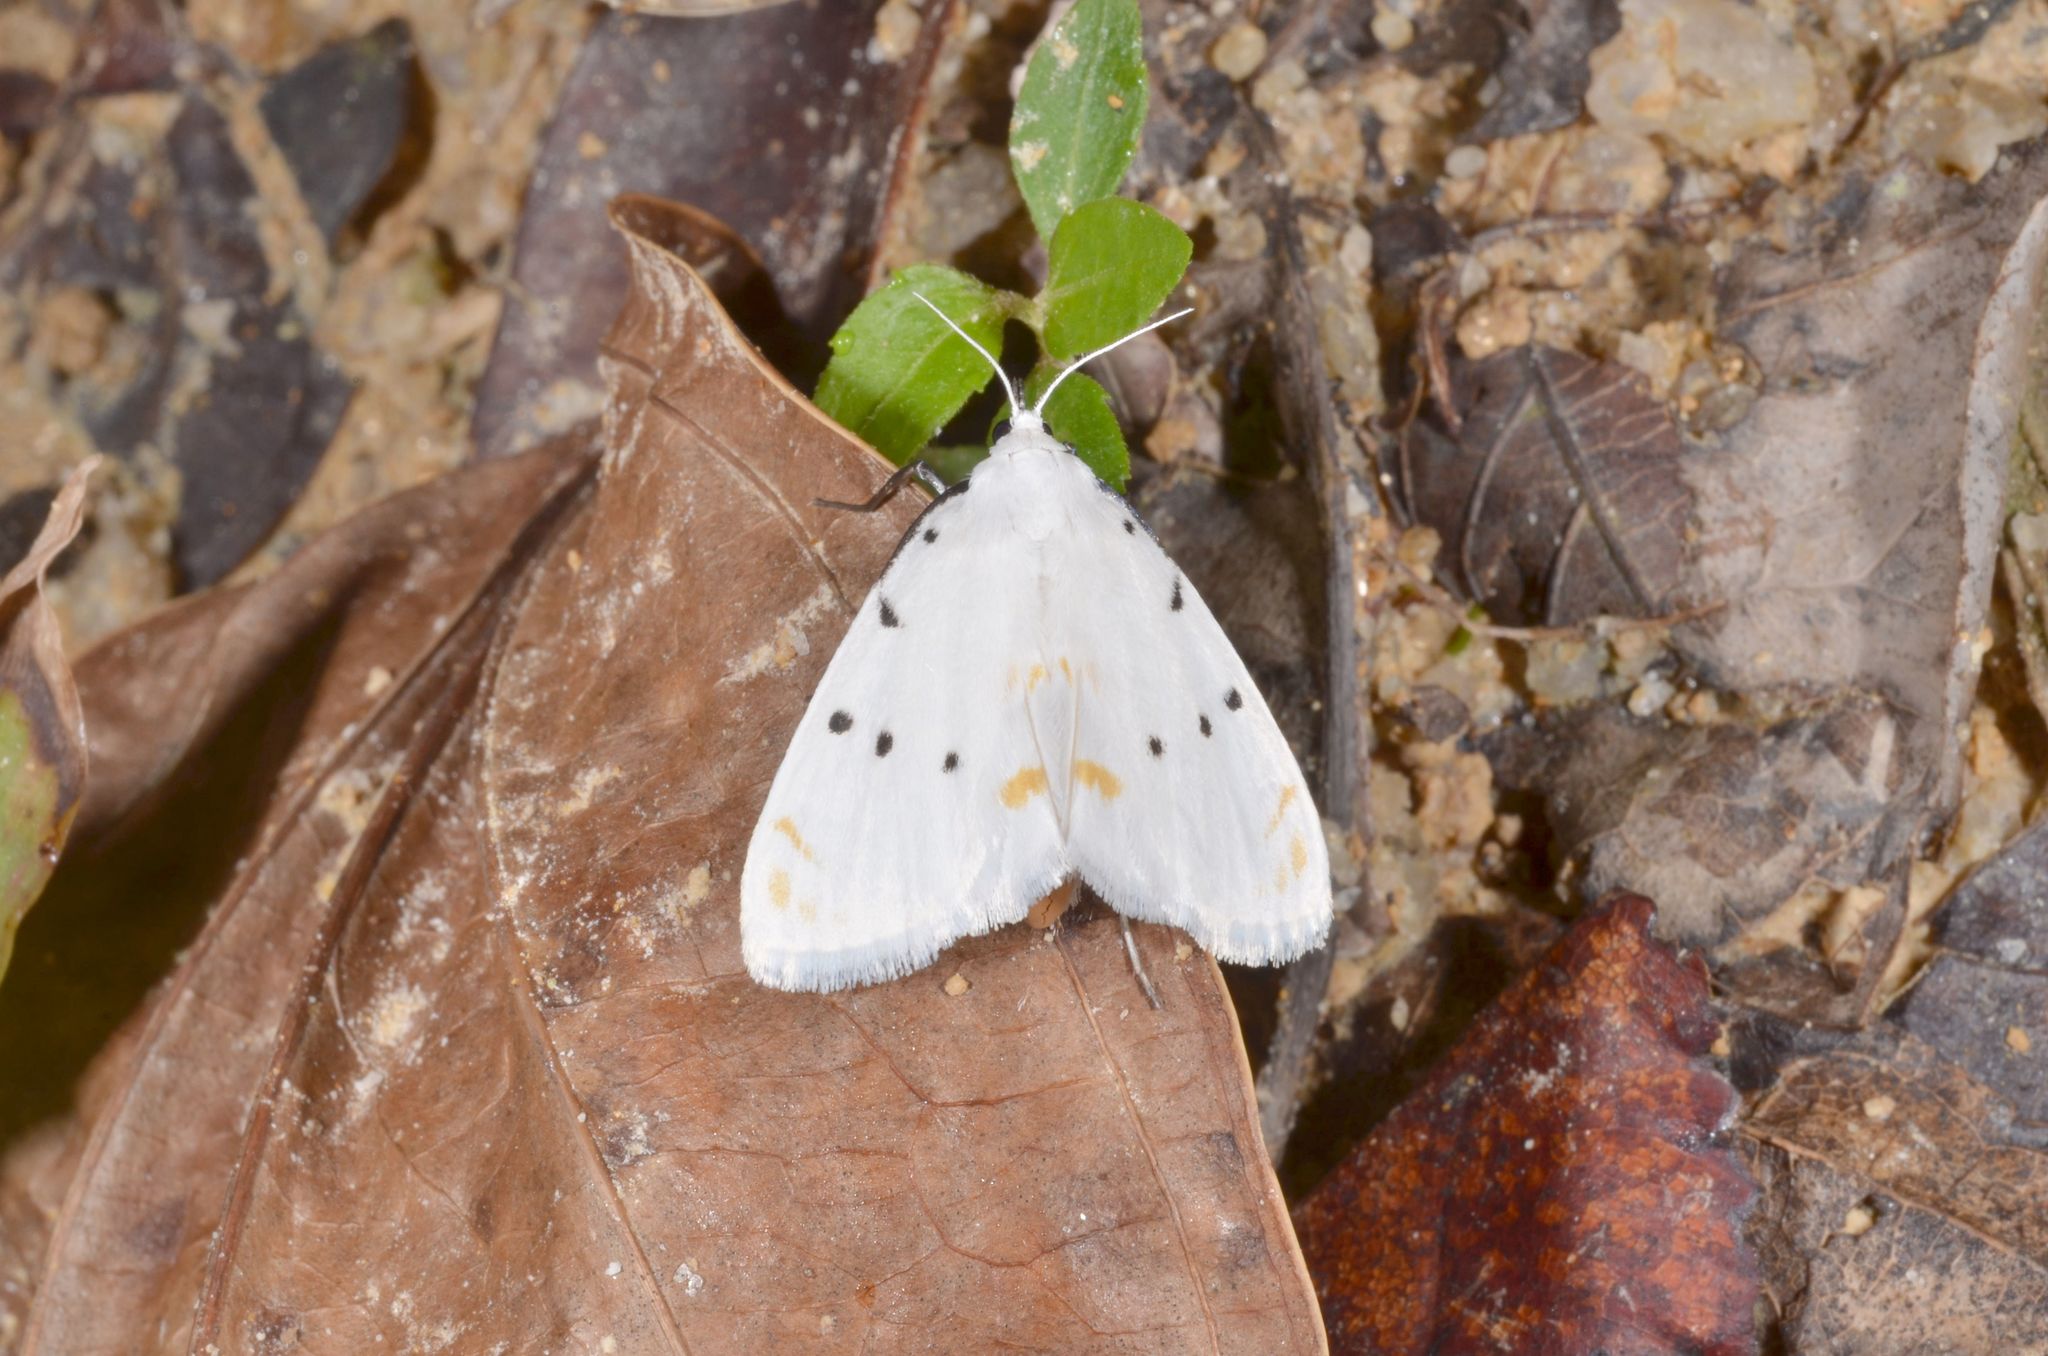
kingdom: Animalia
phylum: Arthropoda
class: Insecta
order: Lepidoptera
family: Crambidae
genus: Brihaspa
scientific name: Brihaspa atrostigmella
